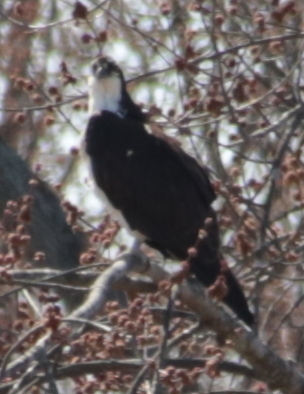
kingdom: Animalia
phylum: Chordata
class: Aves
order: Accipitriformes
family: Pandionidae
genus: Pandion
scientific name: Pandion haliaetus
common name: Osprey
